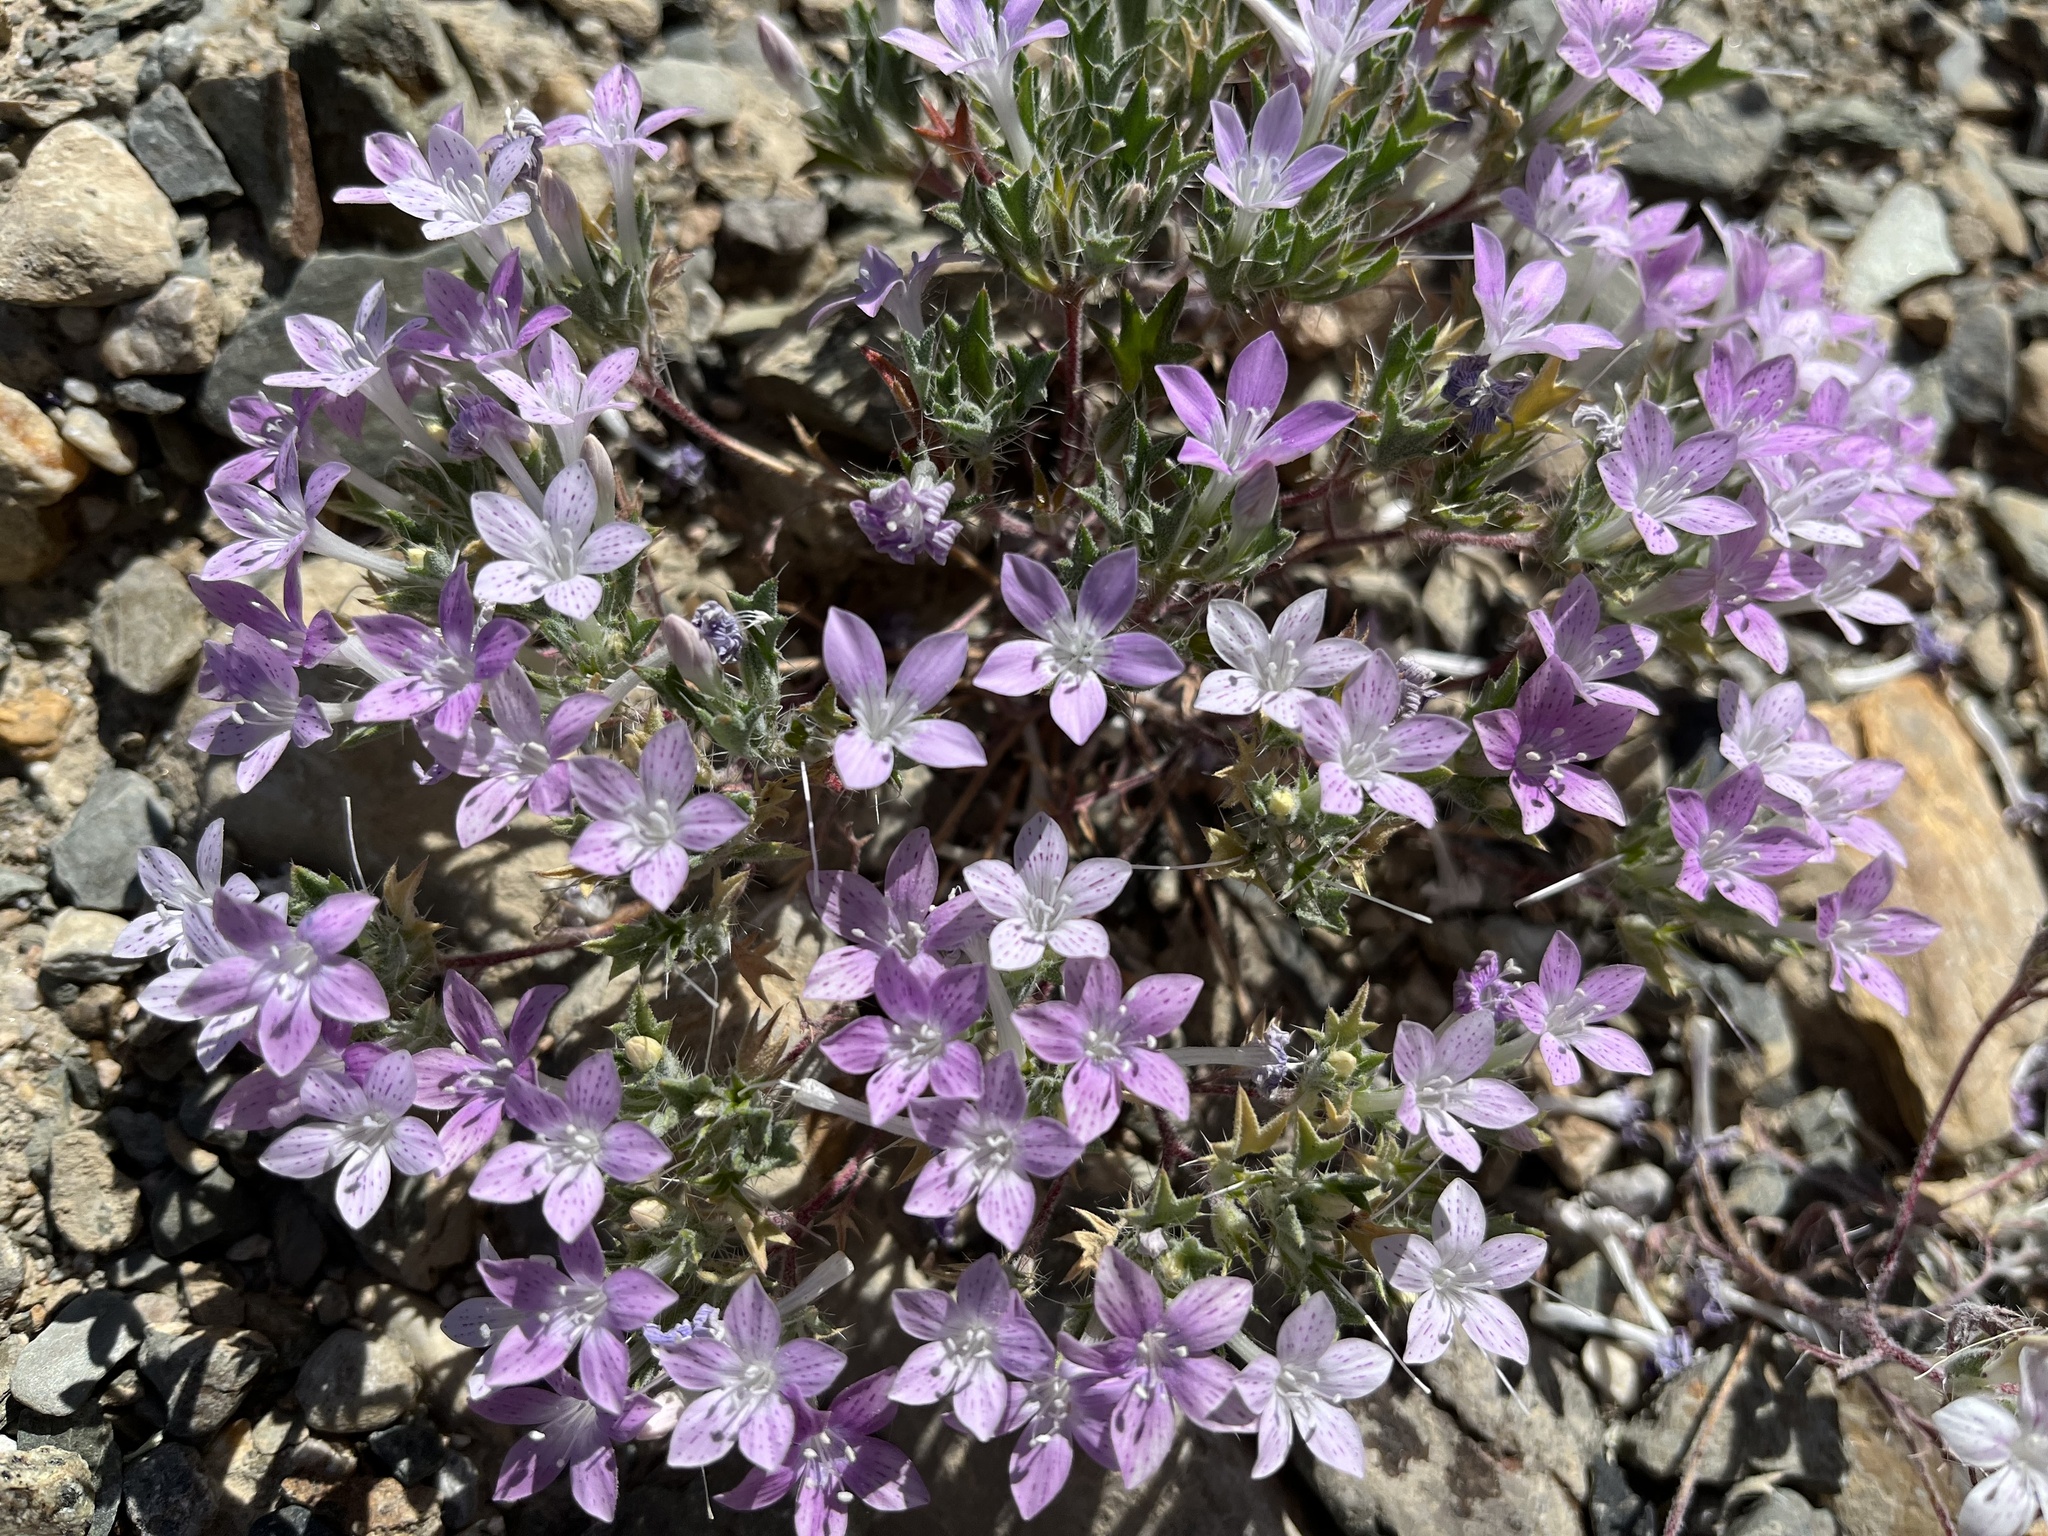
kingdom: Plantae
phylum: Tracheophyta
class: Magnoliopsida
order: Ericales
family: Polemoniaceae
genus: Langloisia
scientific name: Langloisia setosissima
